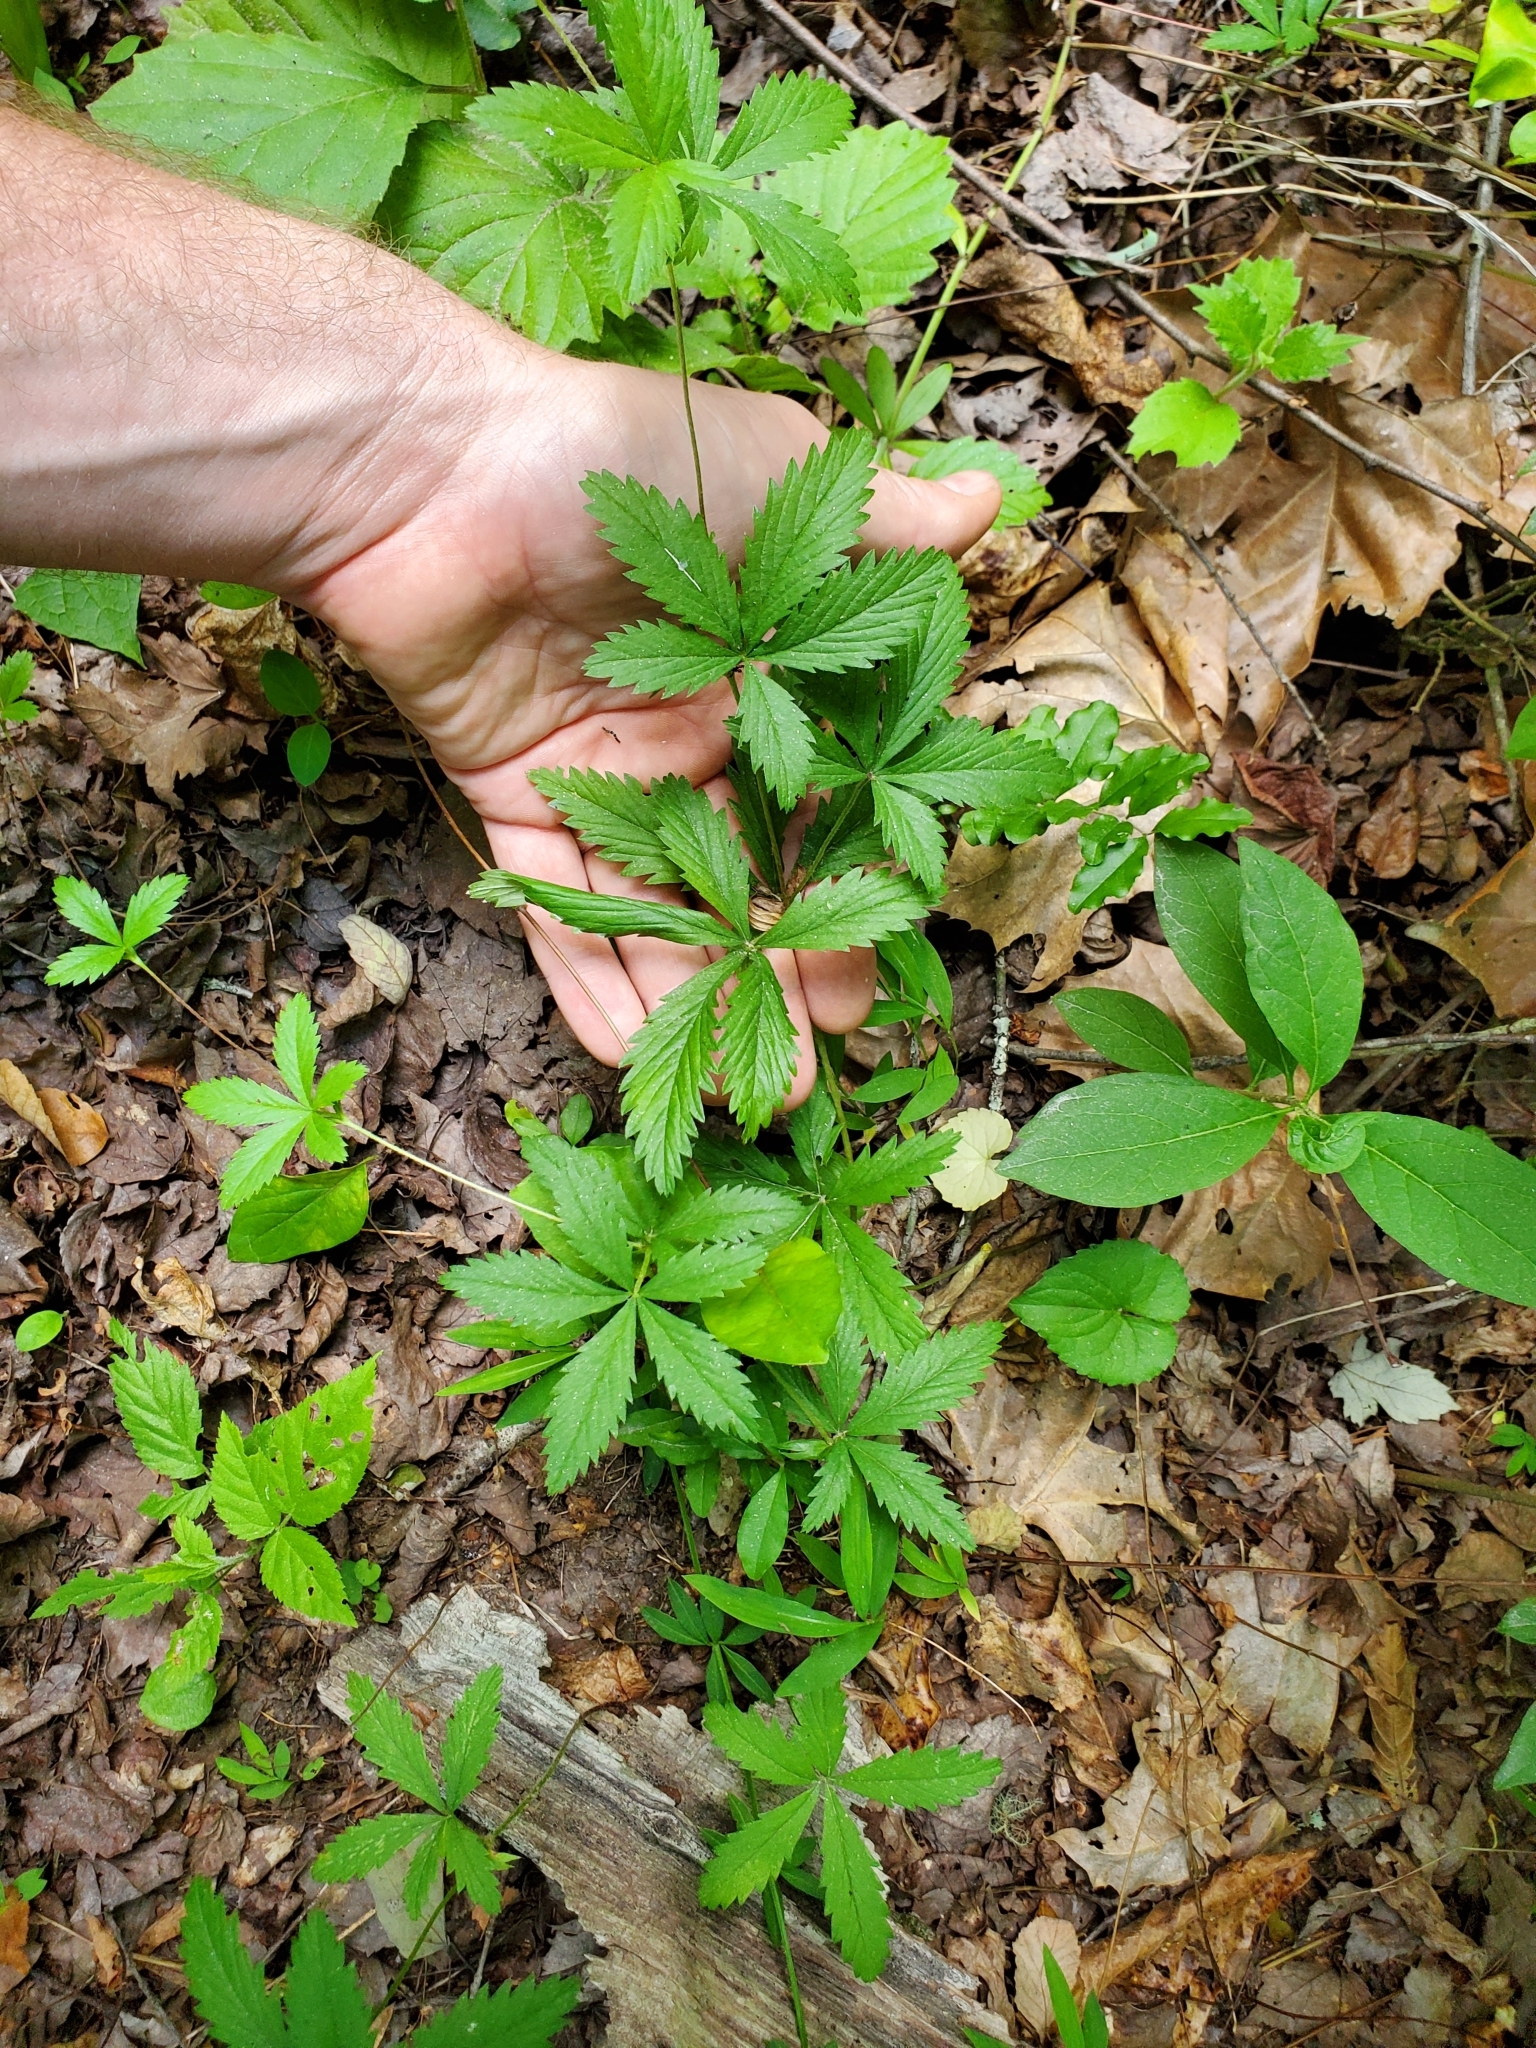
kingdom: Plantae
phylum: Tracheophyta
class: Magnoliopsida
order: Rosales
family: Rosaceae
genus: Potentilla
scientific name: Potentilla simplex
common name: Old field cinquefoil
